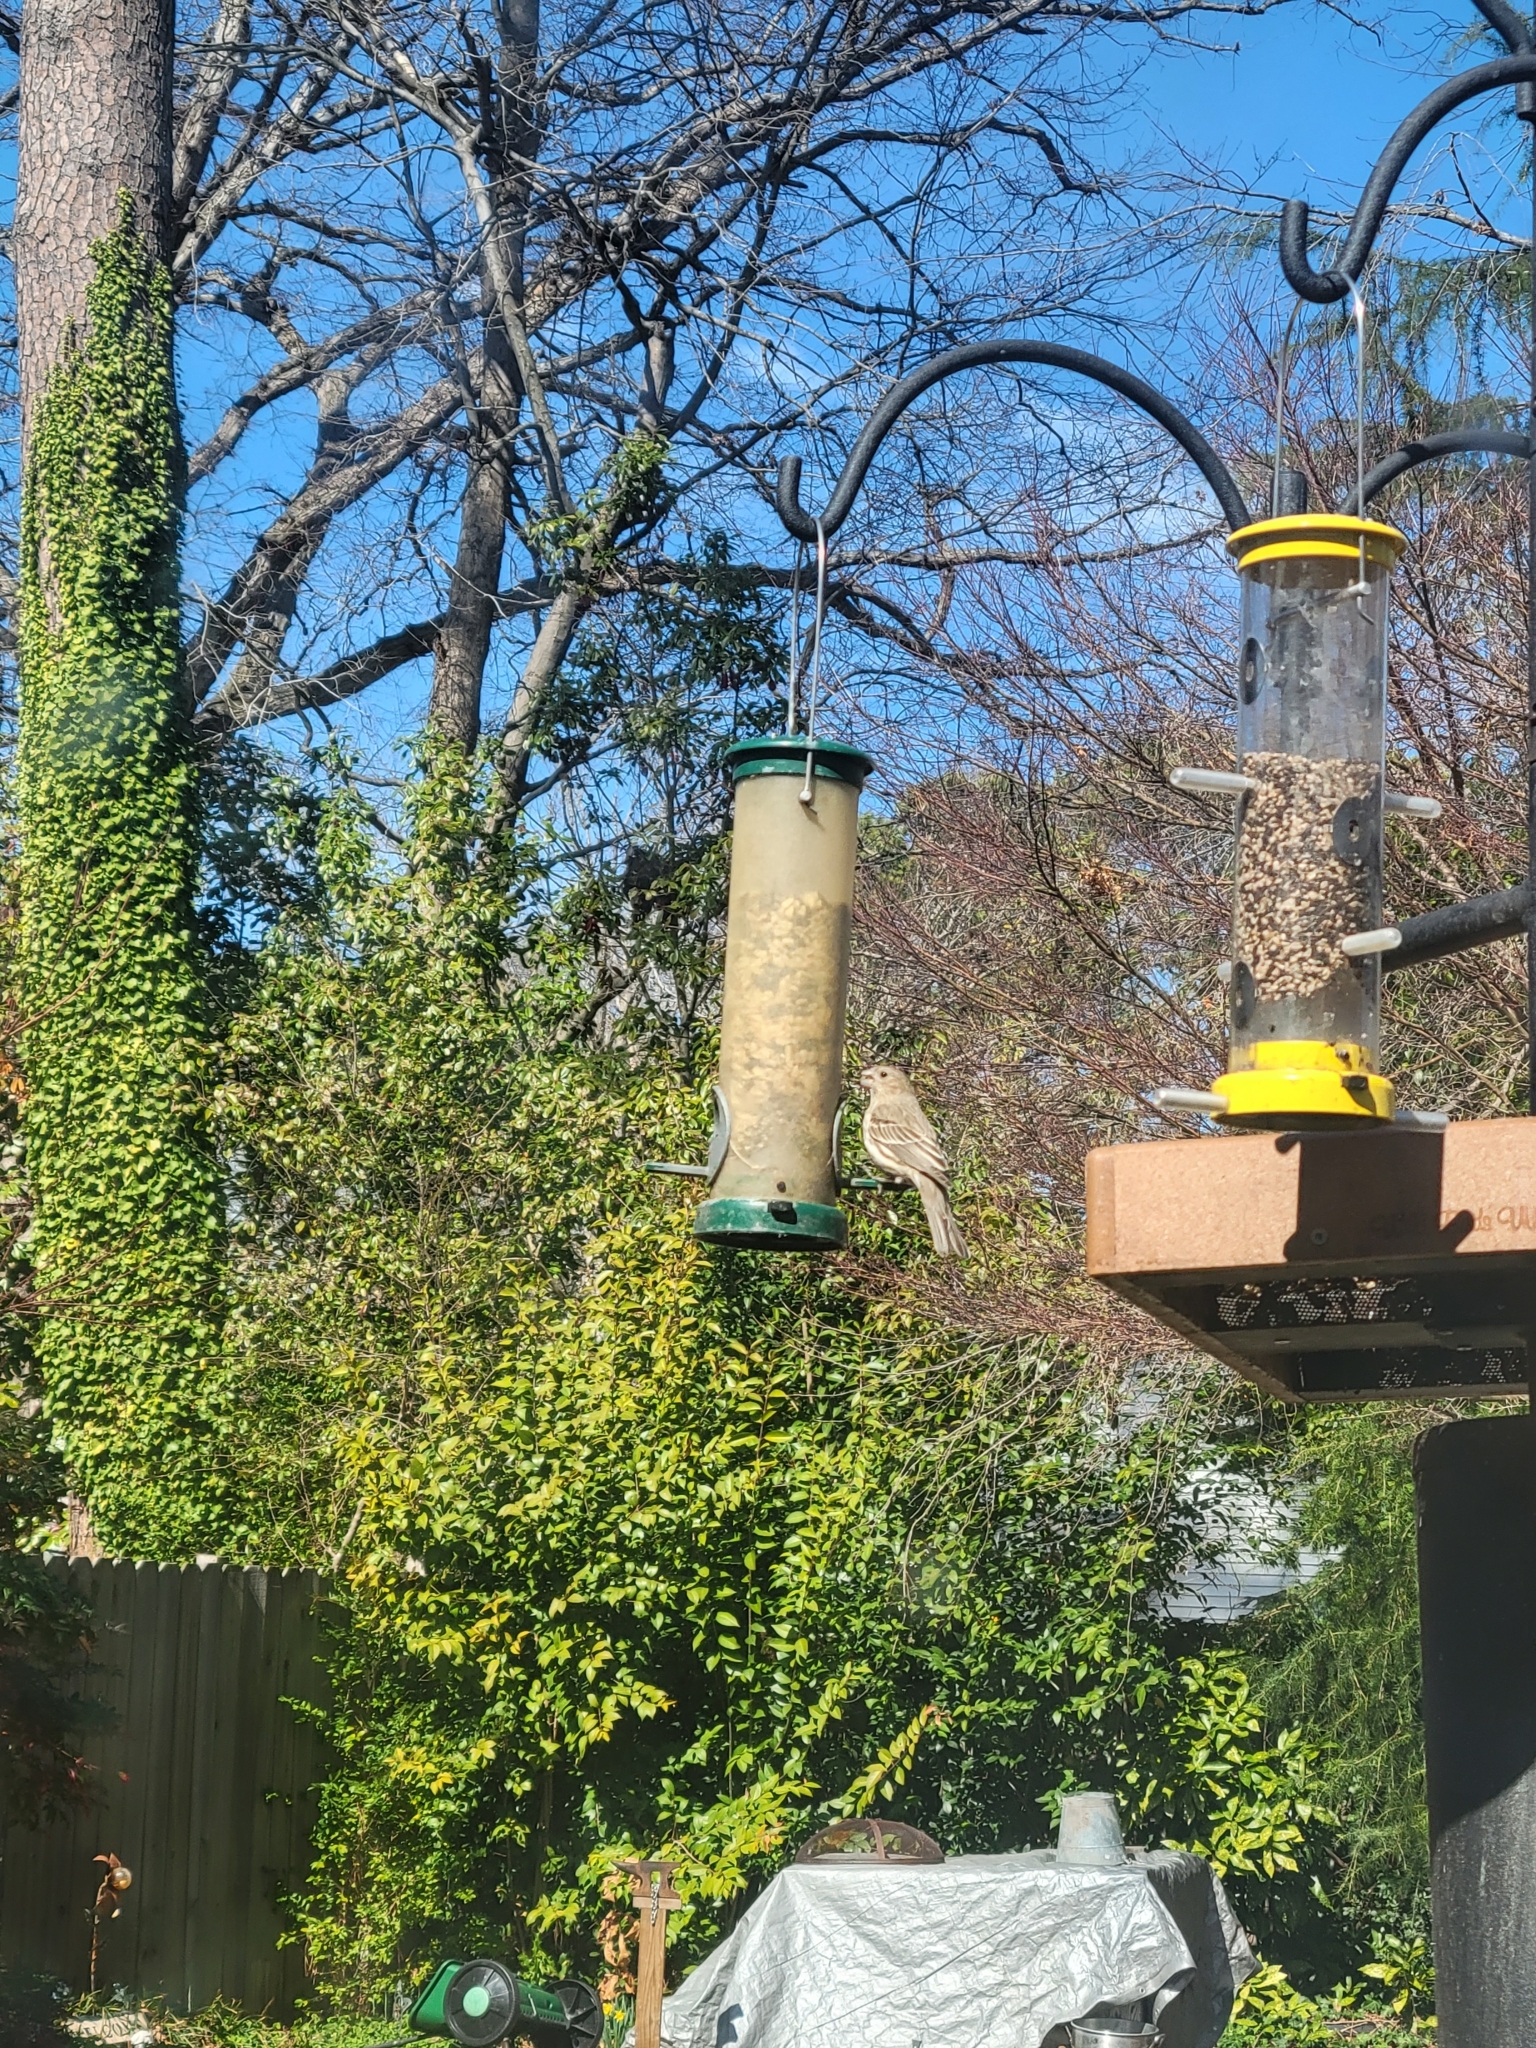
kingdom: Animalia
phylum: Chordata
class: Aves
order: Passeriformes
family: Fringillidae
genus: Haemorhous
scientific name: Haemorhous mexicanus
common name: House finch
